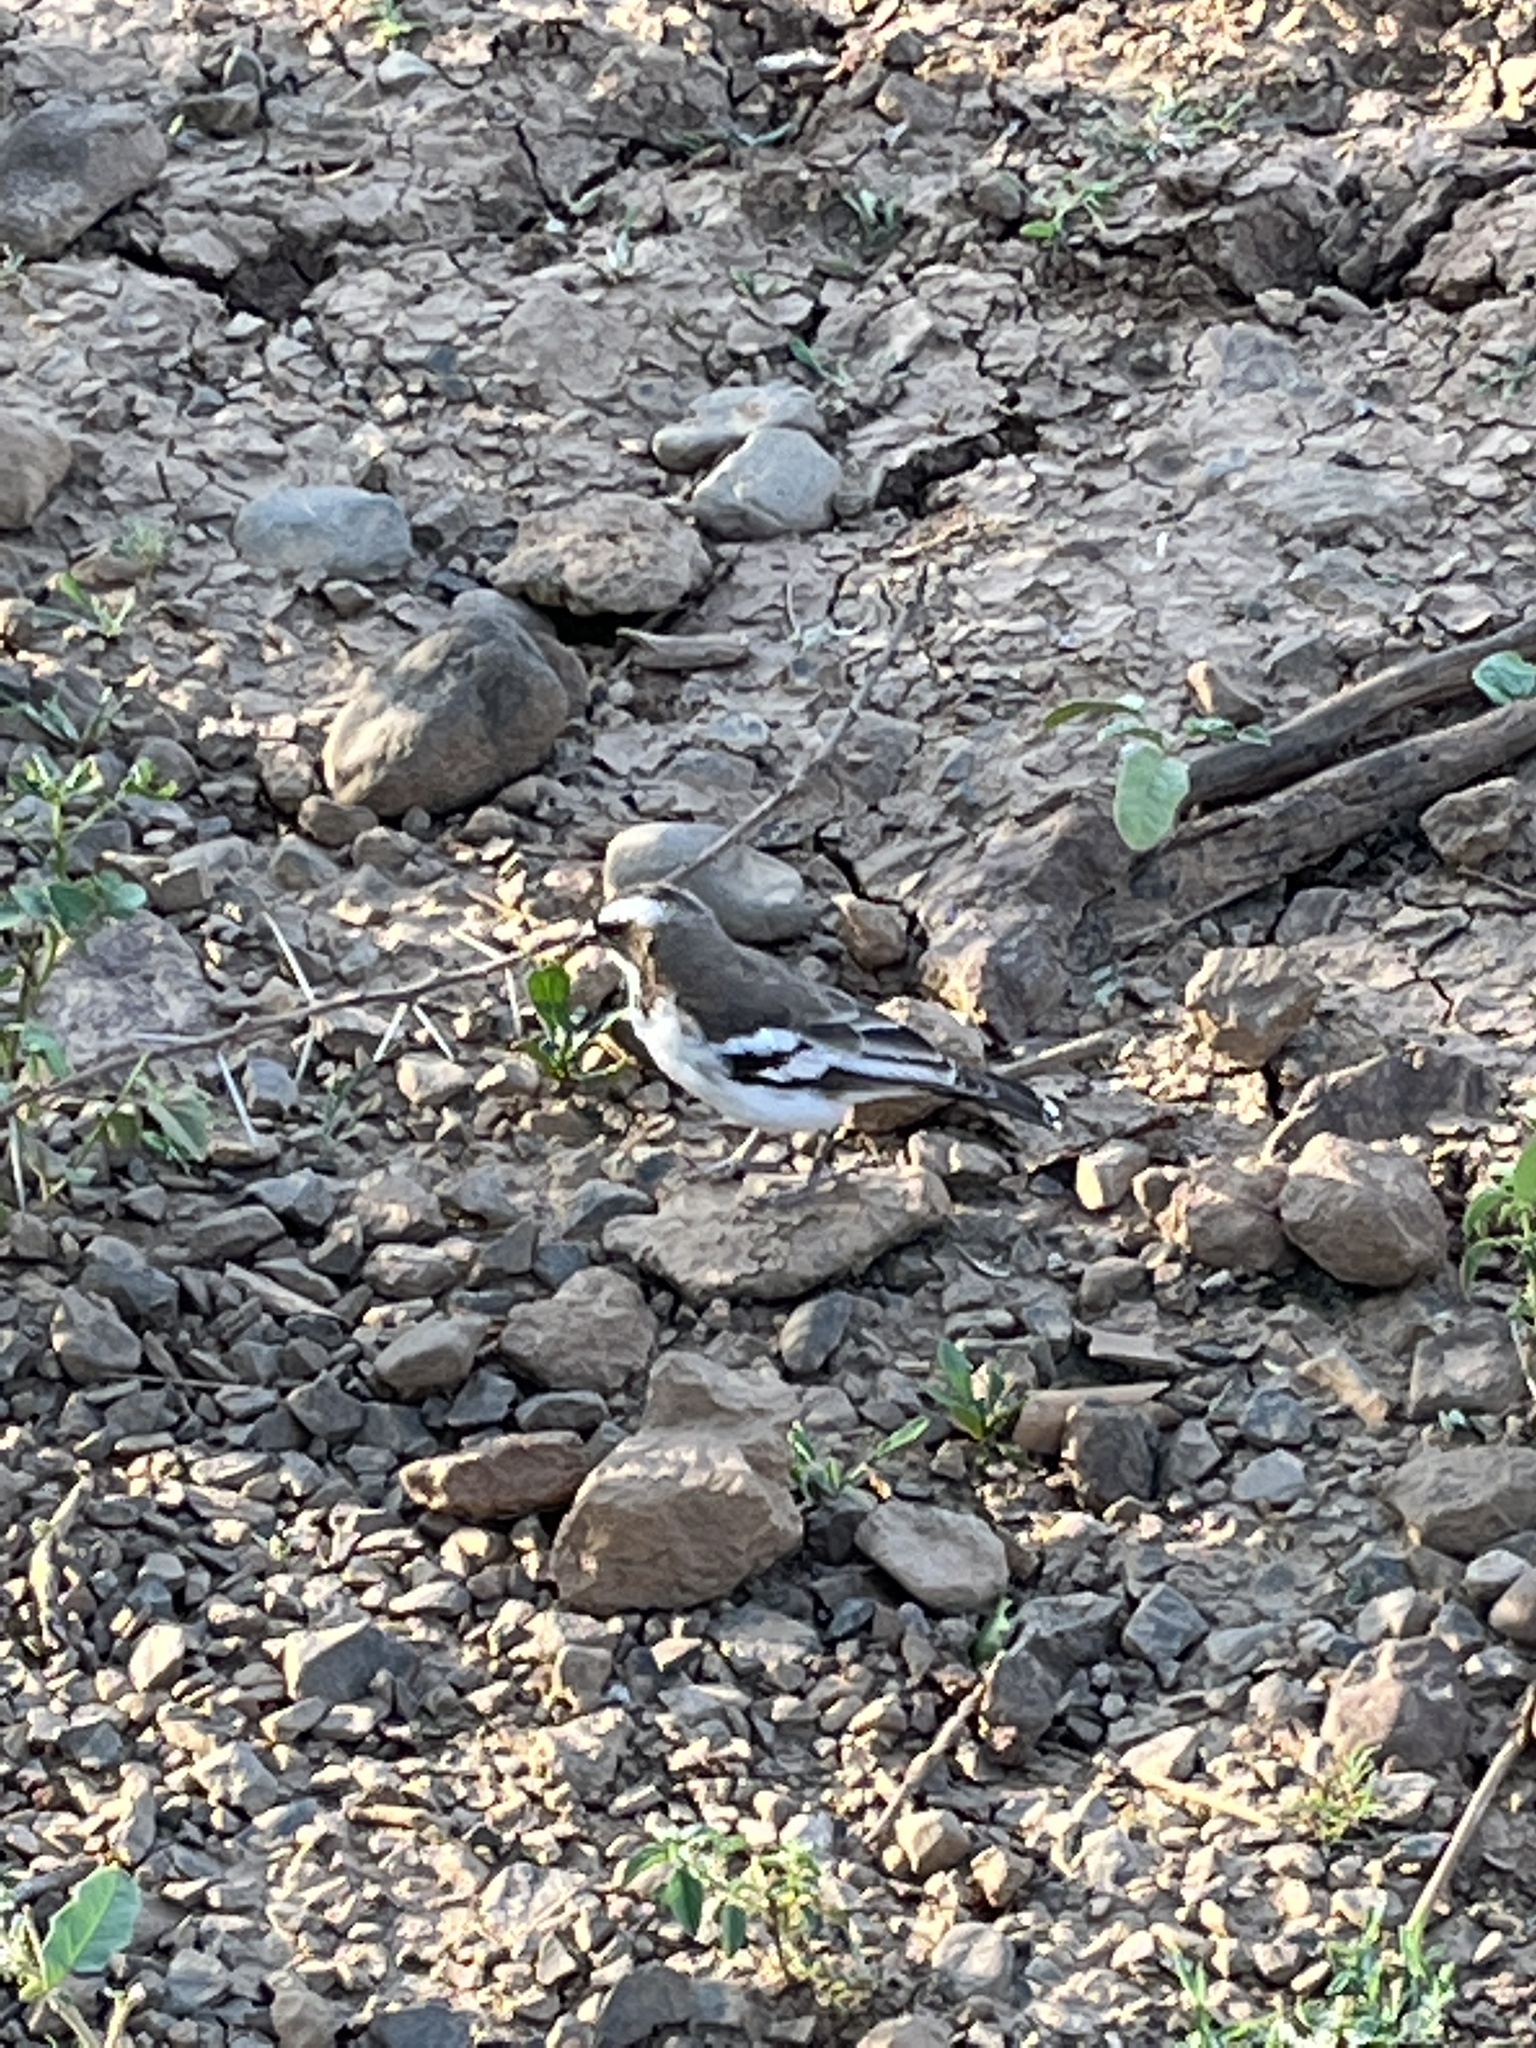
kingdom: Animalia
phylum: Chordata
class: Aves
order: Passeriformes
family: Passeridae
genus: Plocepasser
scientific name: Plocepasser mahali
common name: White-browed sparrow-weaver
